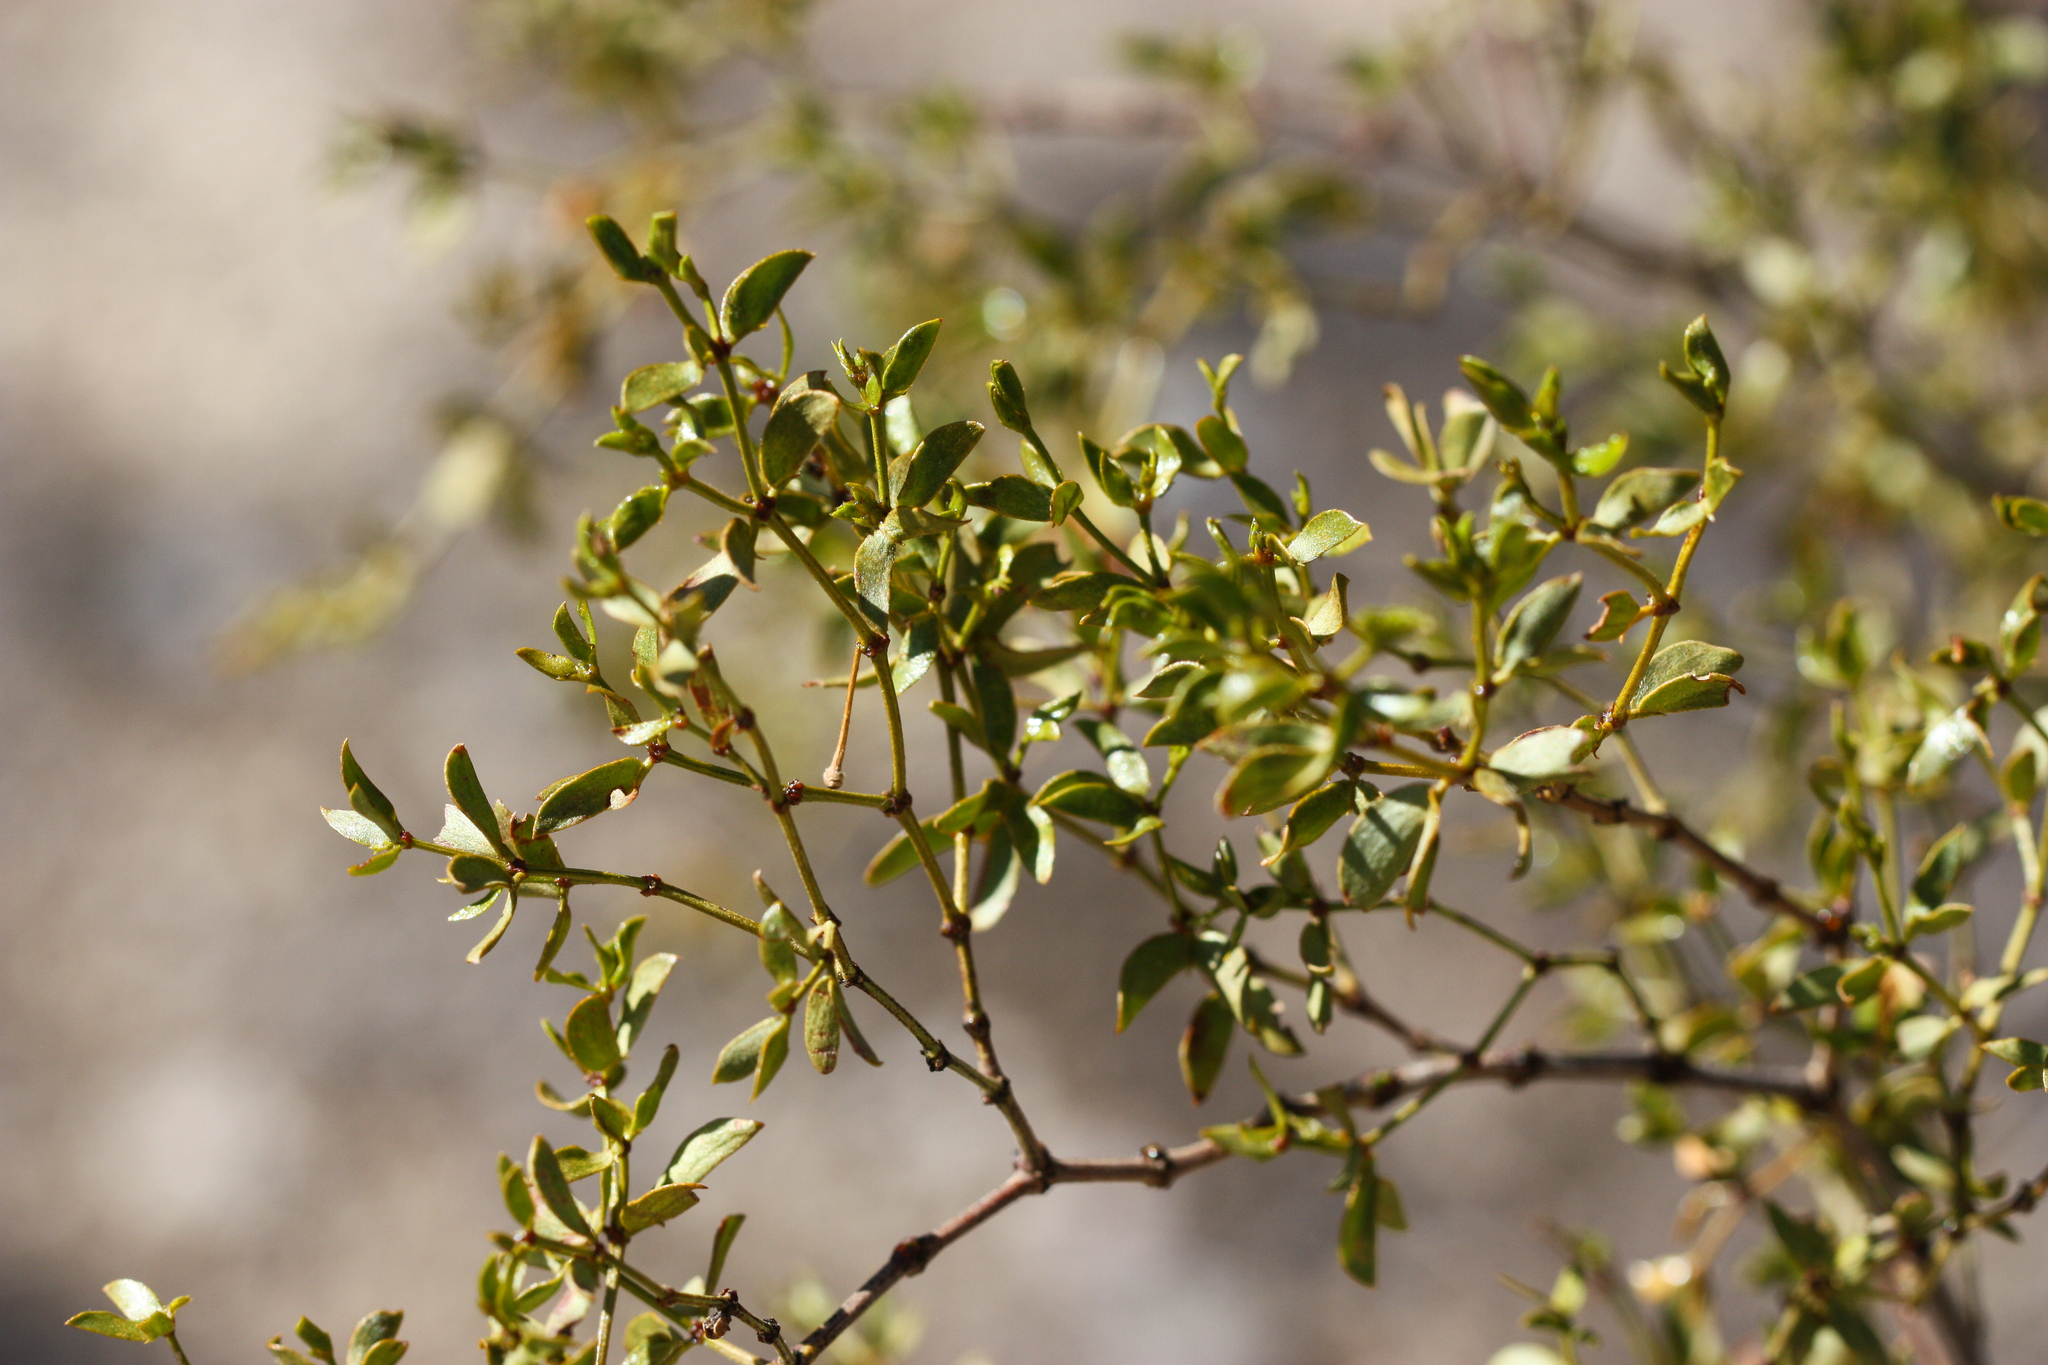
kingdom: Plantae
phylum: Tracheophyta
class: Magnoliopsida
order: Zygophyllales
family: Zygophyllaceae
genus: Larrea
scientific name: Larrea tridentata
